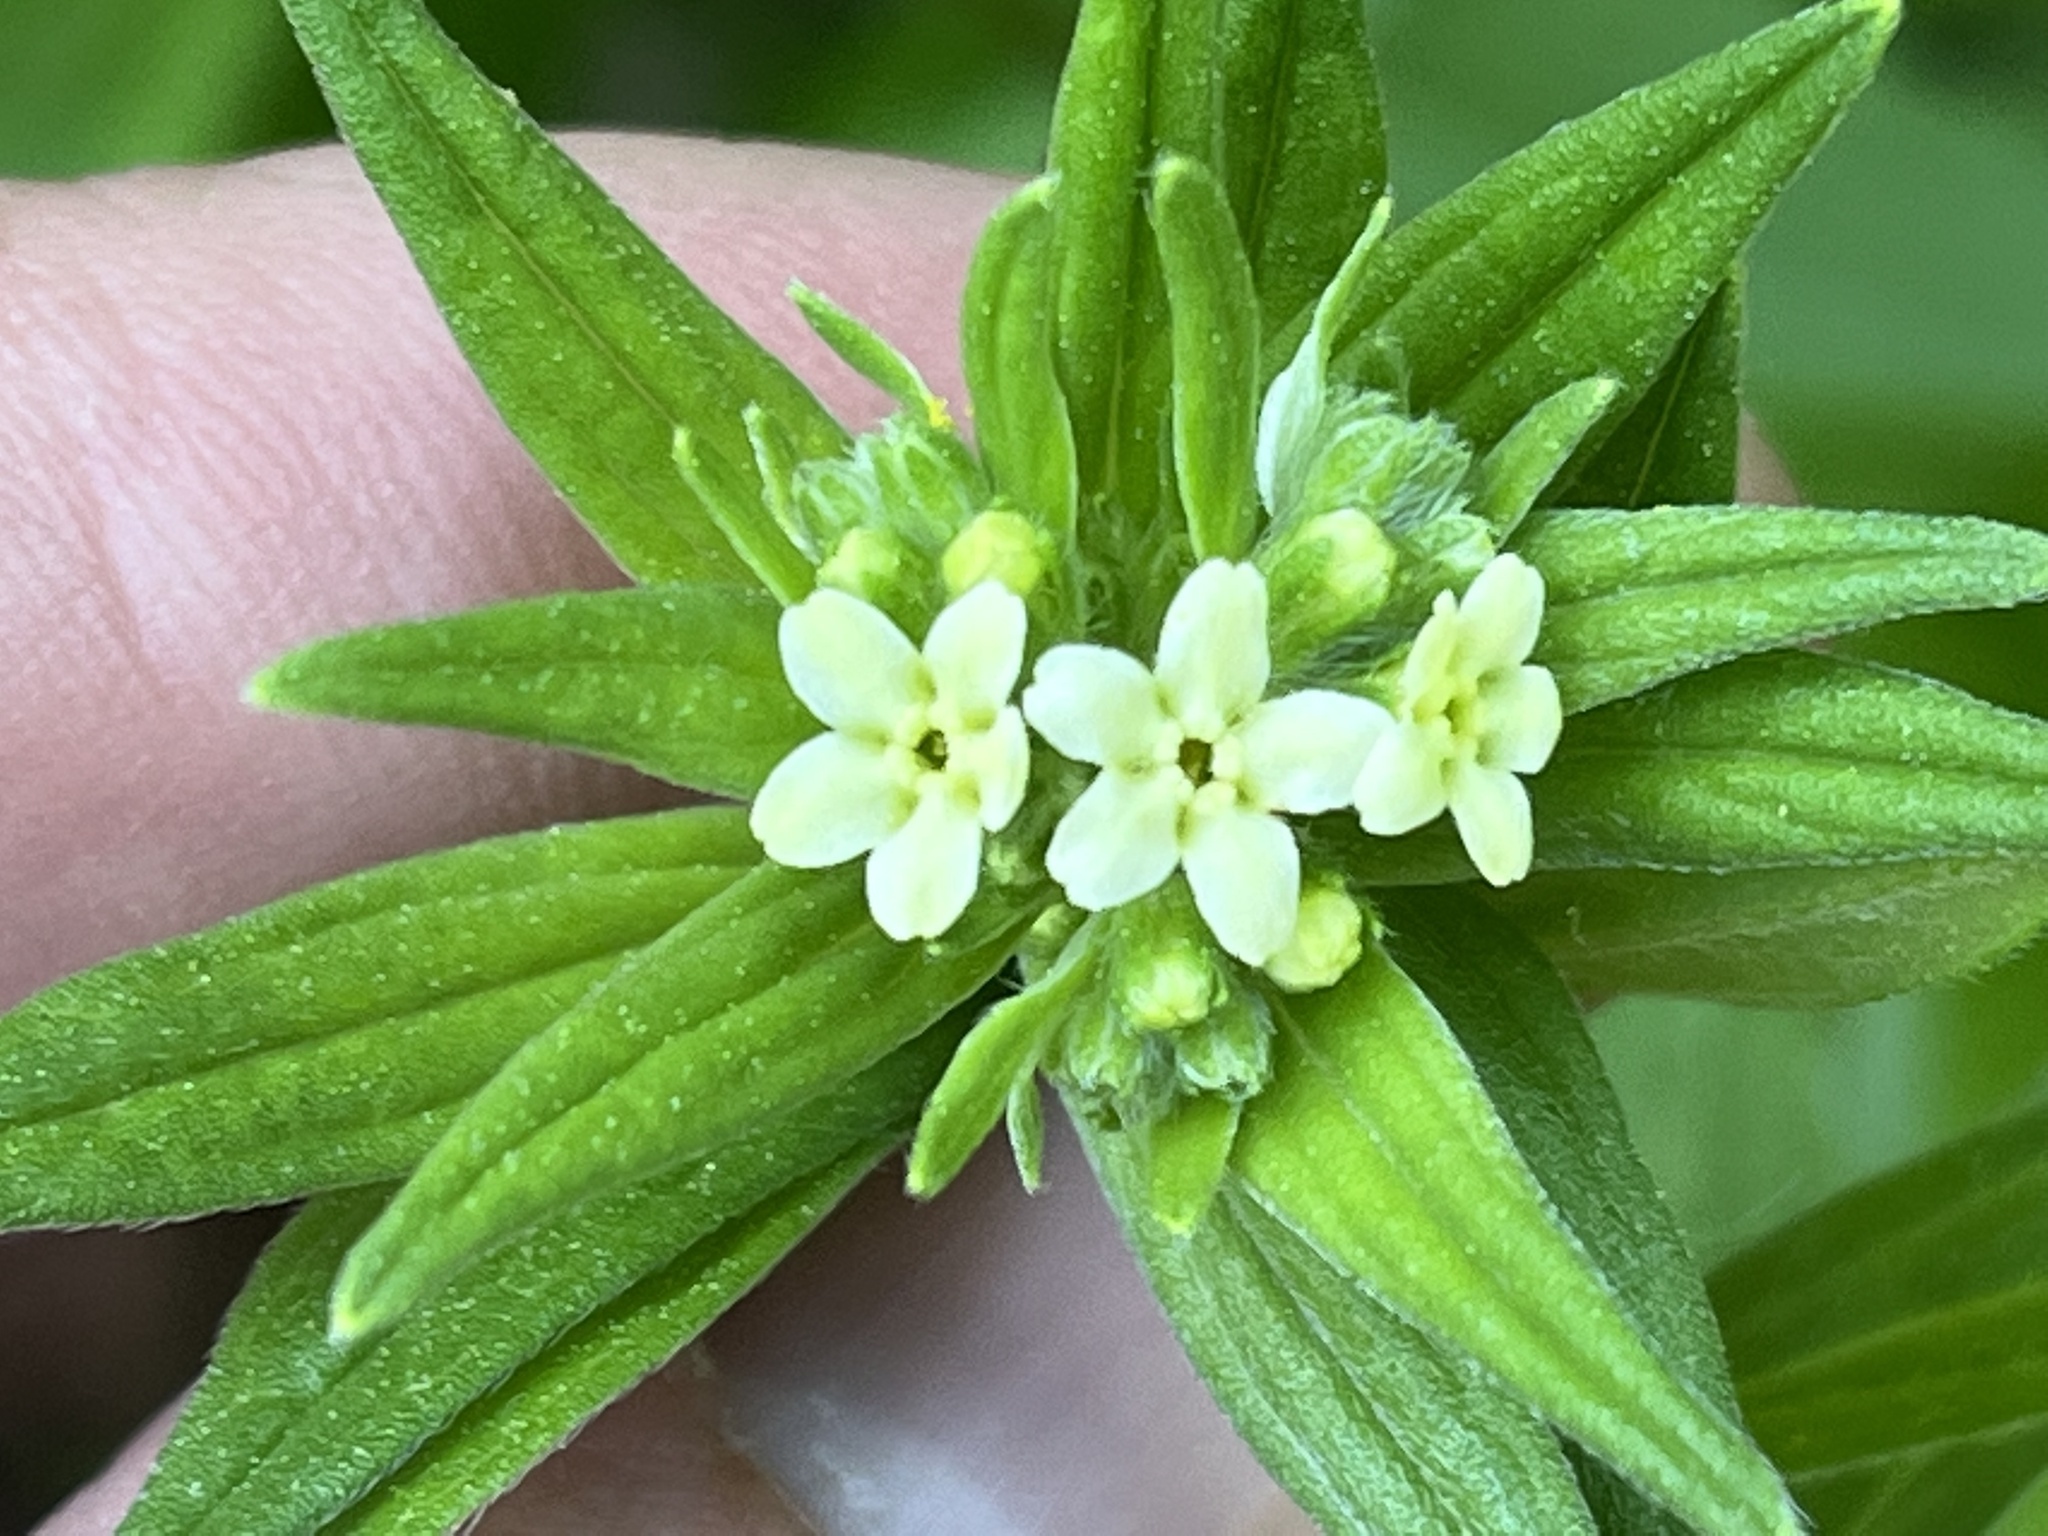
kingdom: Plantae
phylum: Tracheophyta
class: Magnoliopsida
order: Boraginales
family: Boraginaceae
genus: Lithospermum
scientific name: Lithospermum officinale
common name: Common gromwell
